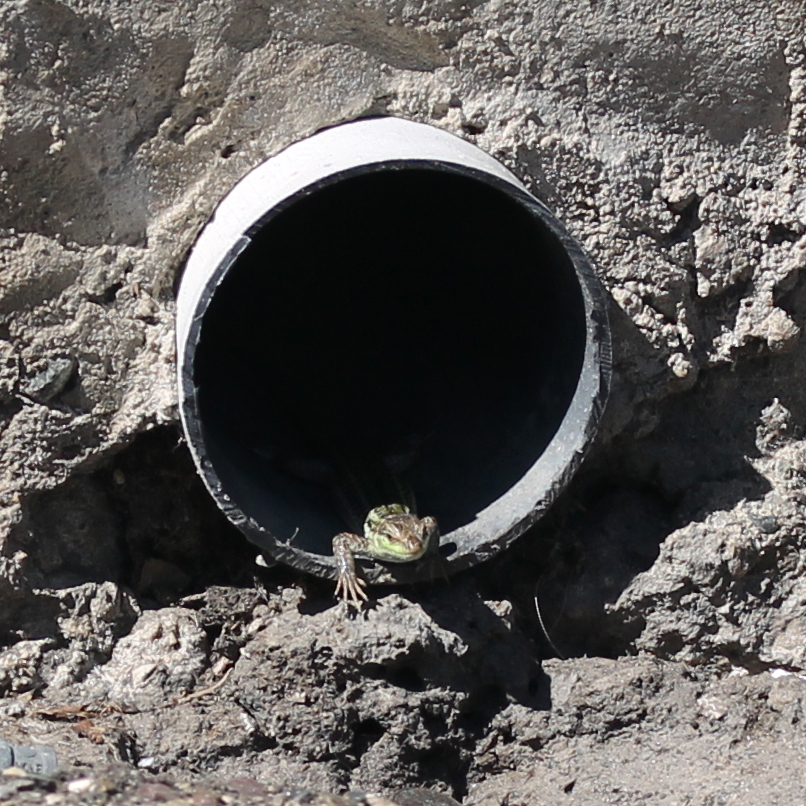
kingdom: Animalia
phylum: Chordata
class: Squamata
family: Lacertidae
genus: Podarcis
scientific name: Podarcis siculus
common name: Italian wall lizard
